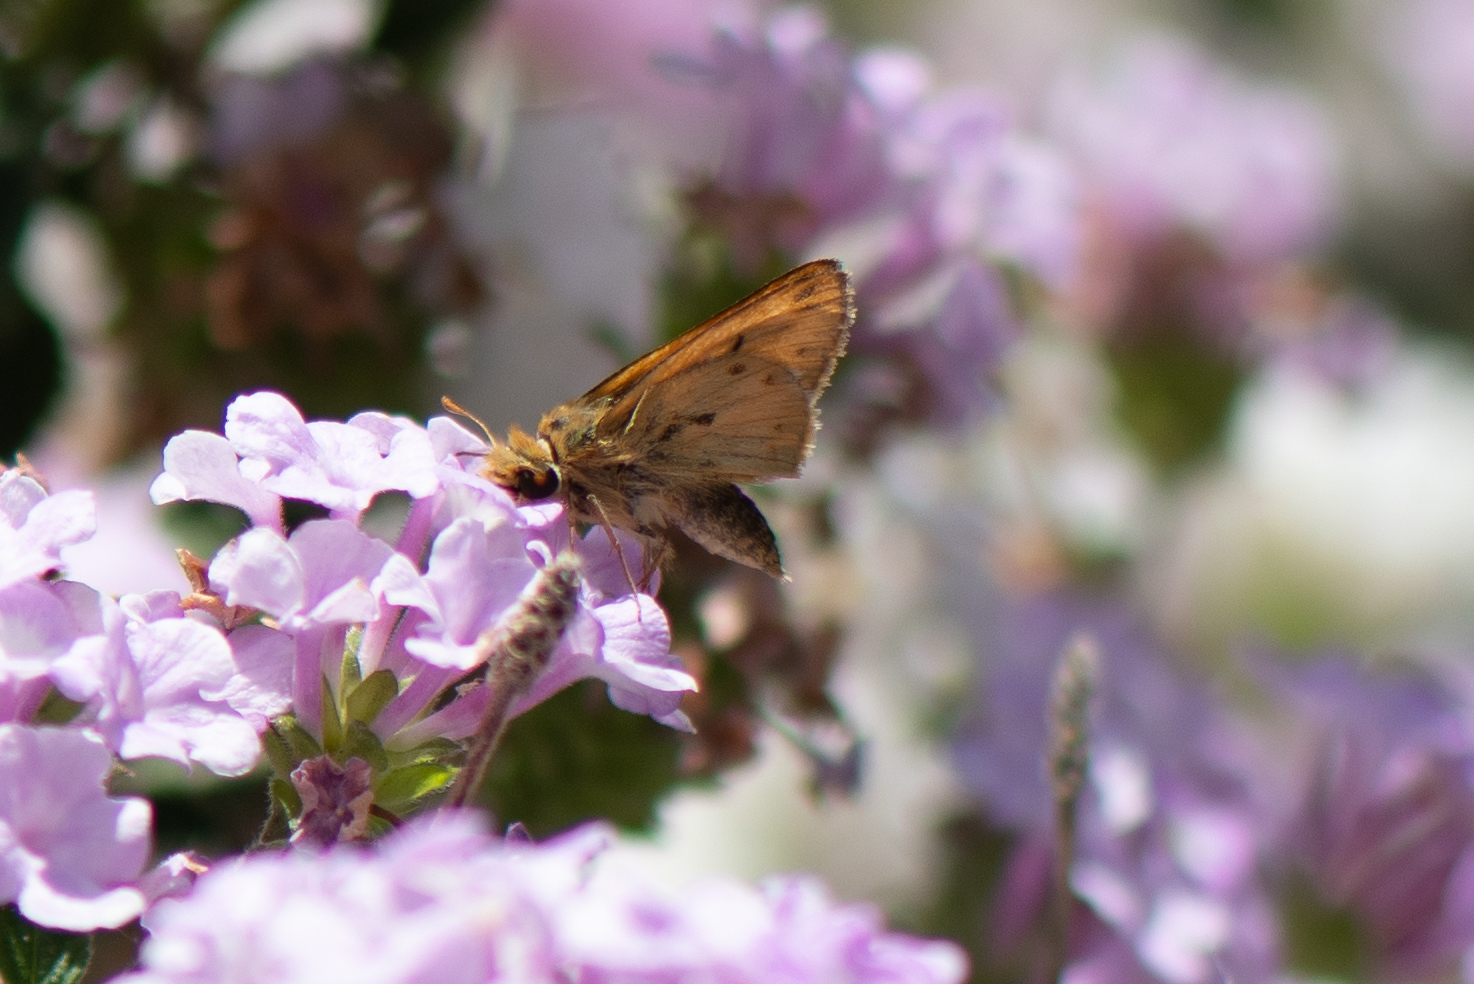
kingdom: Animalia
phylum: Arthropoda
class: Insecta
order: Lepidoptera
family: Hesperiidae
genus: Hylephila
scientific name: Hylephila phyleus
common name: Fiery skipper
